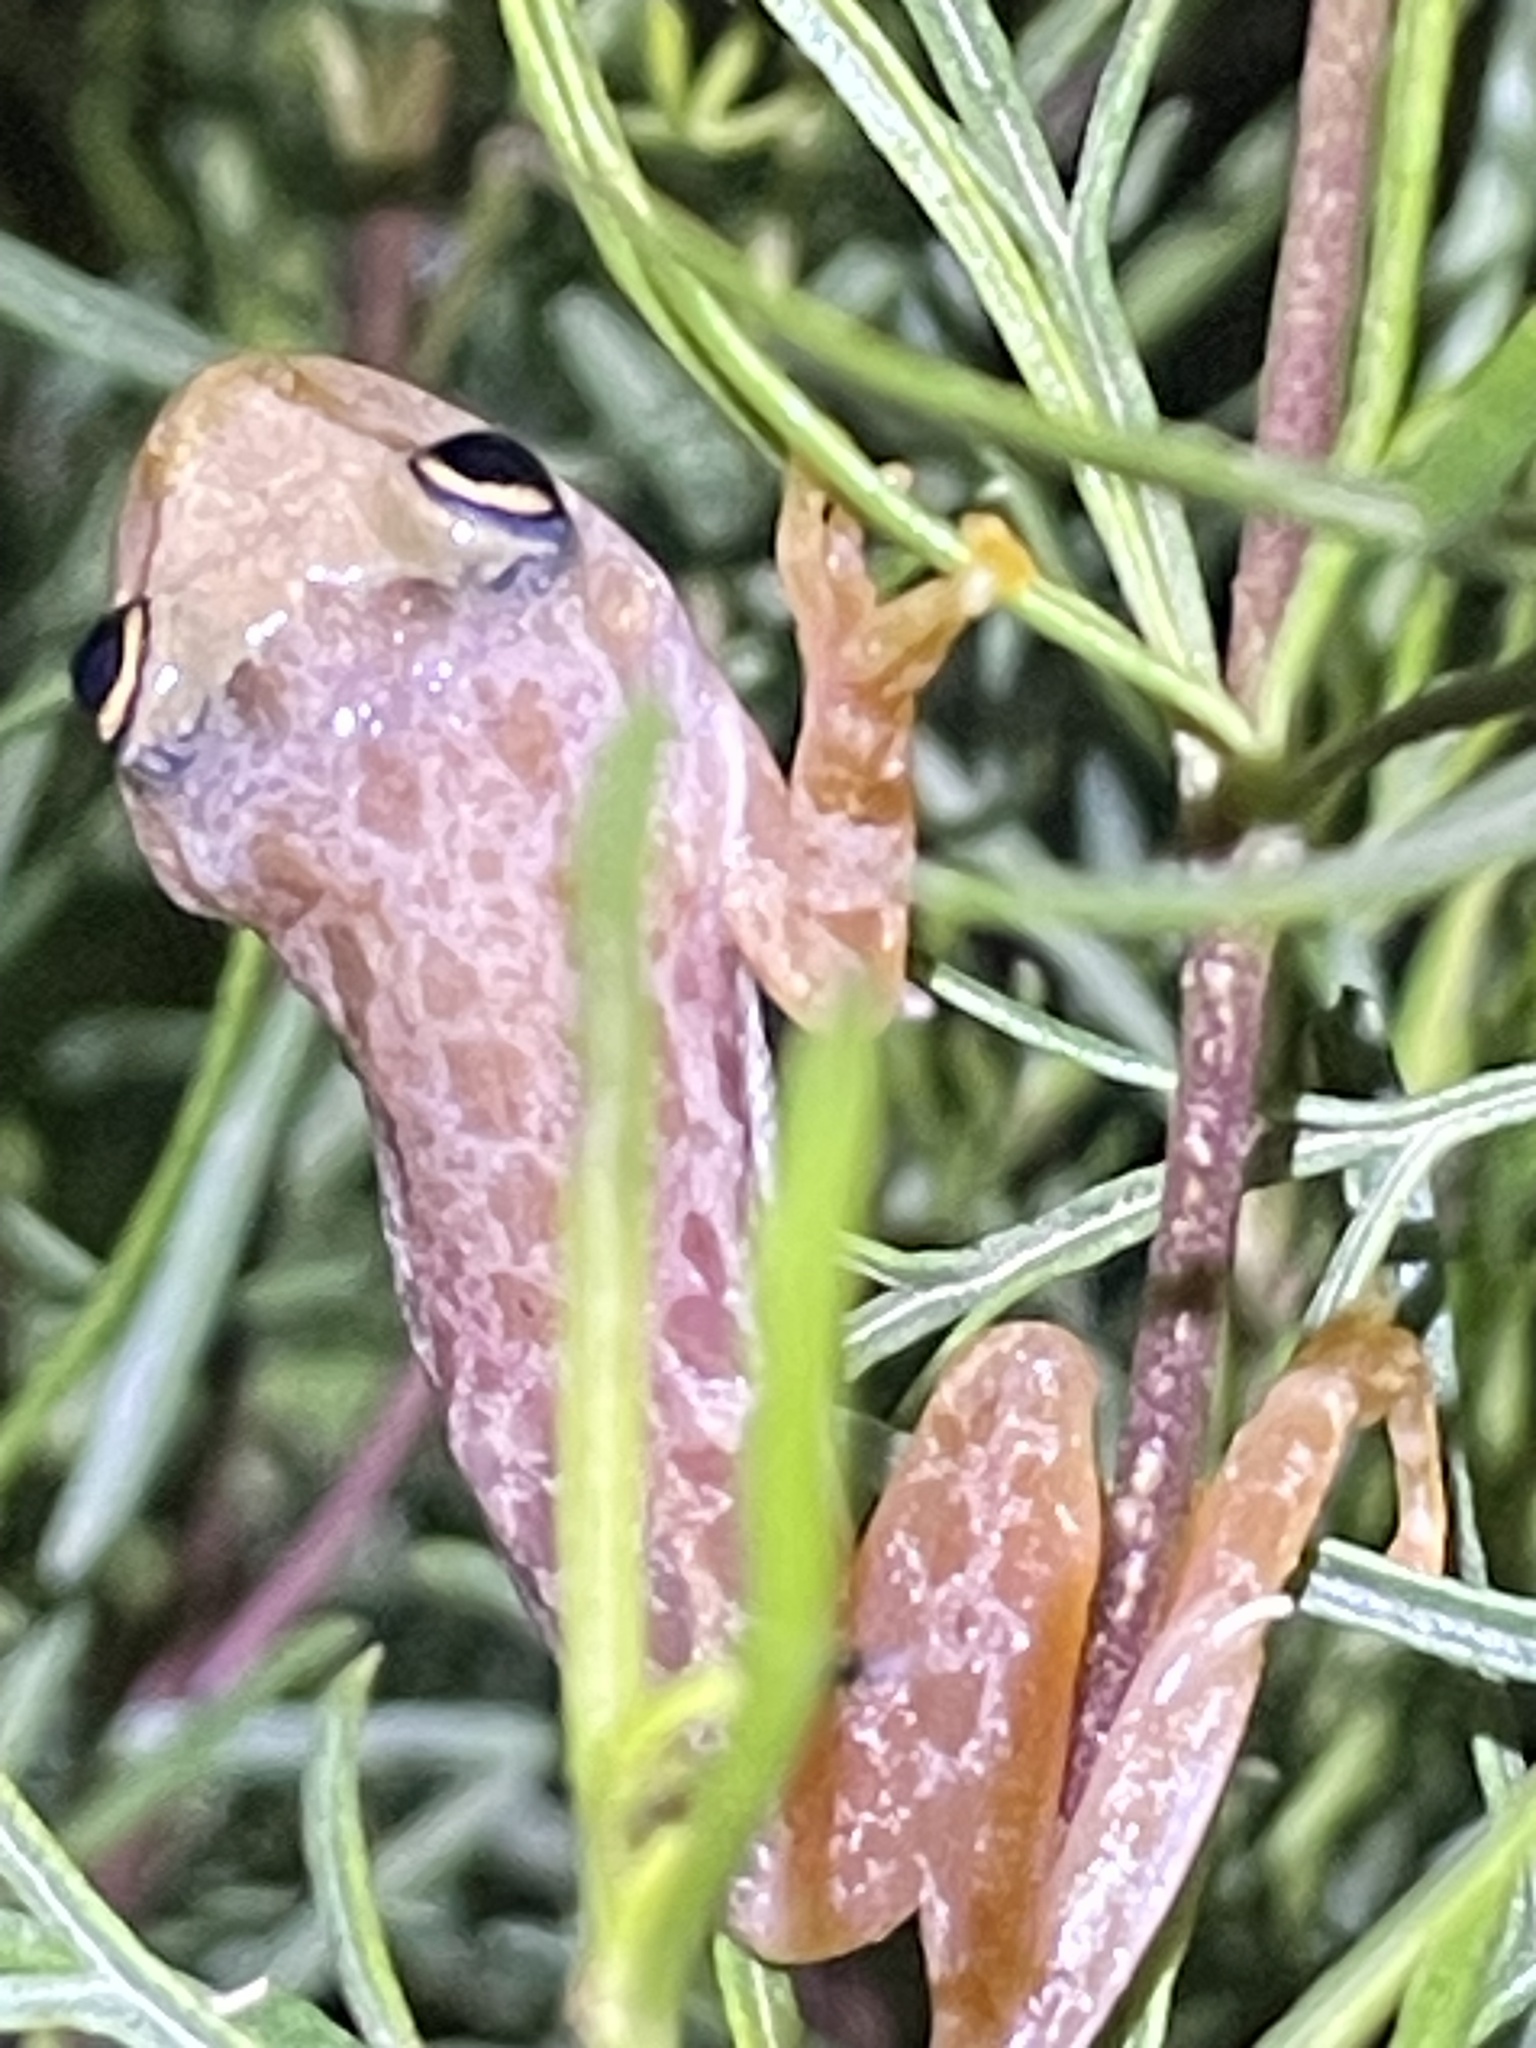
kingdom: Animalia
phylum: Chordata
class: Amphibia
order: Anura
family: Hylidae
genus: Julianus
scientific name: Julianus uruguayus
